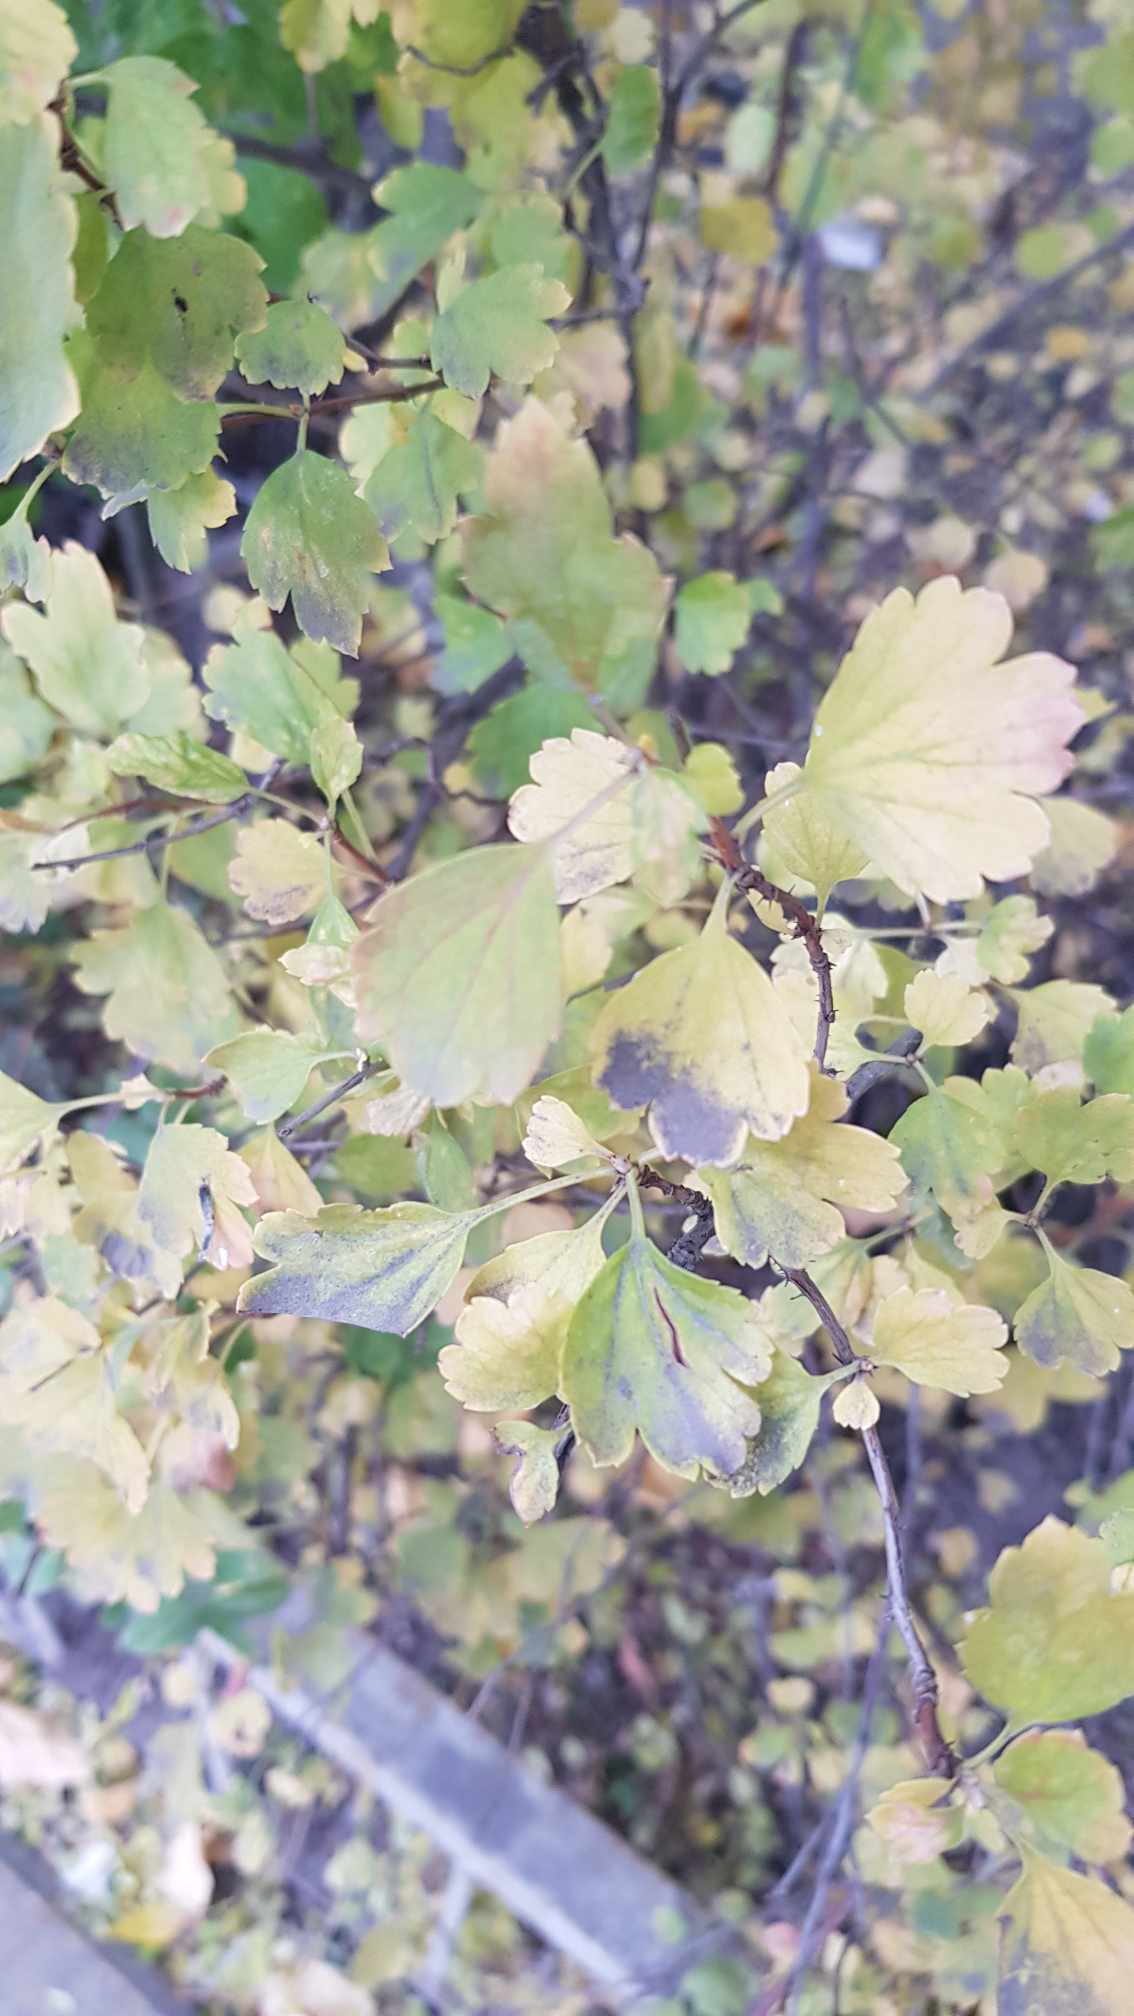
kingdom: Plantae
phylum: Tracheophyta
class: Magnoliopsida
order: Saxifragales
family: Grossulariaceae
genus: Ribes
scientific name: Ribes diacanthum
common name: Siberian currant
